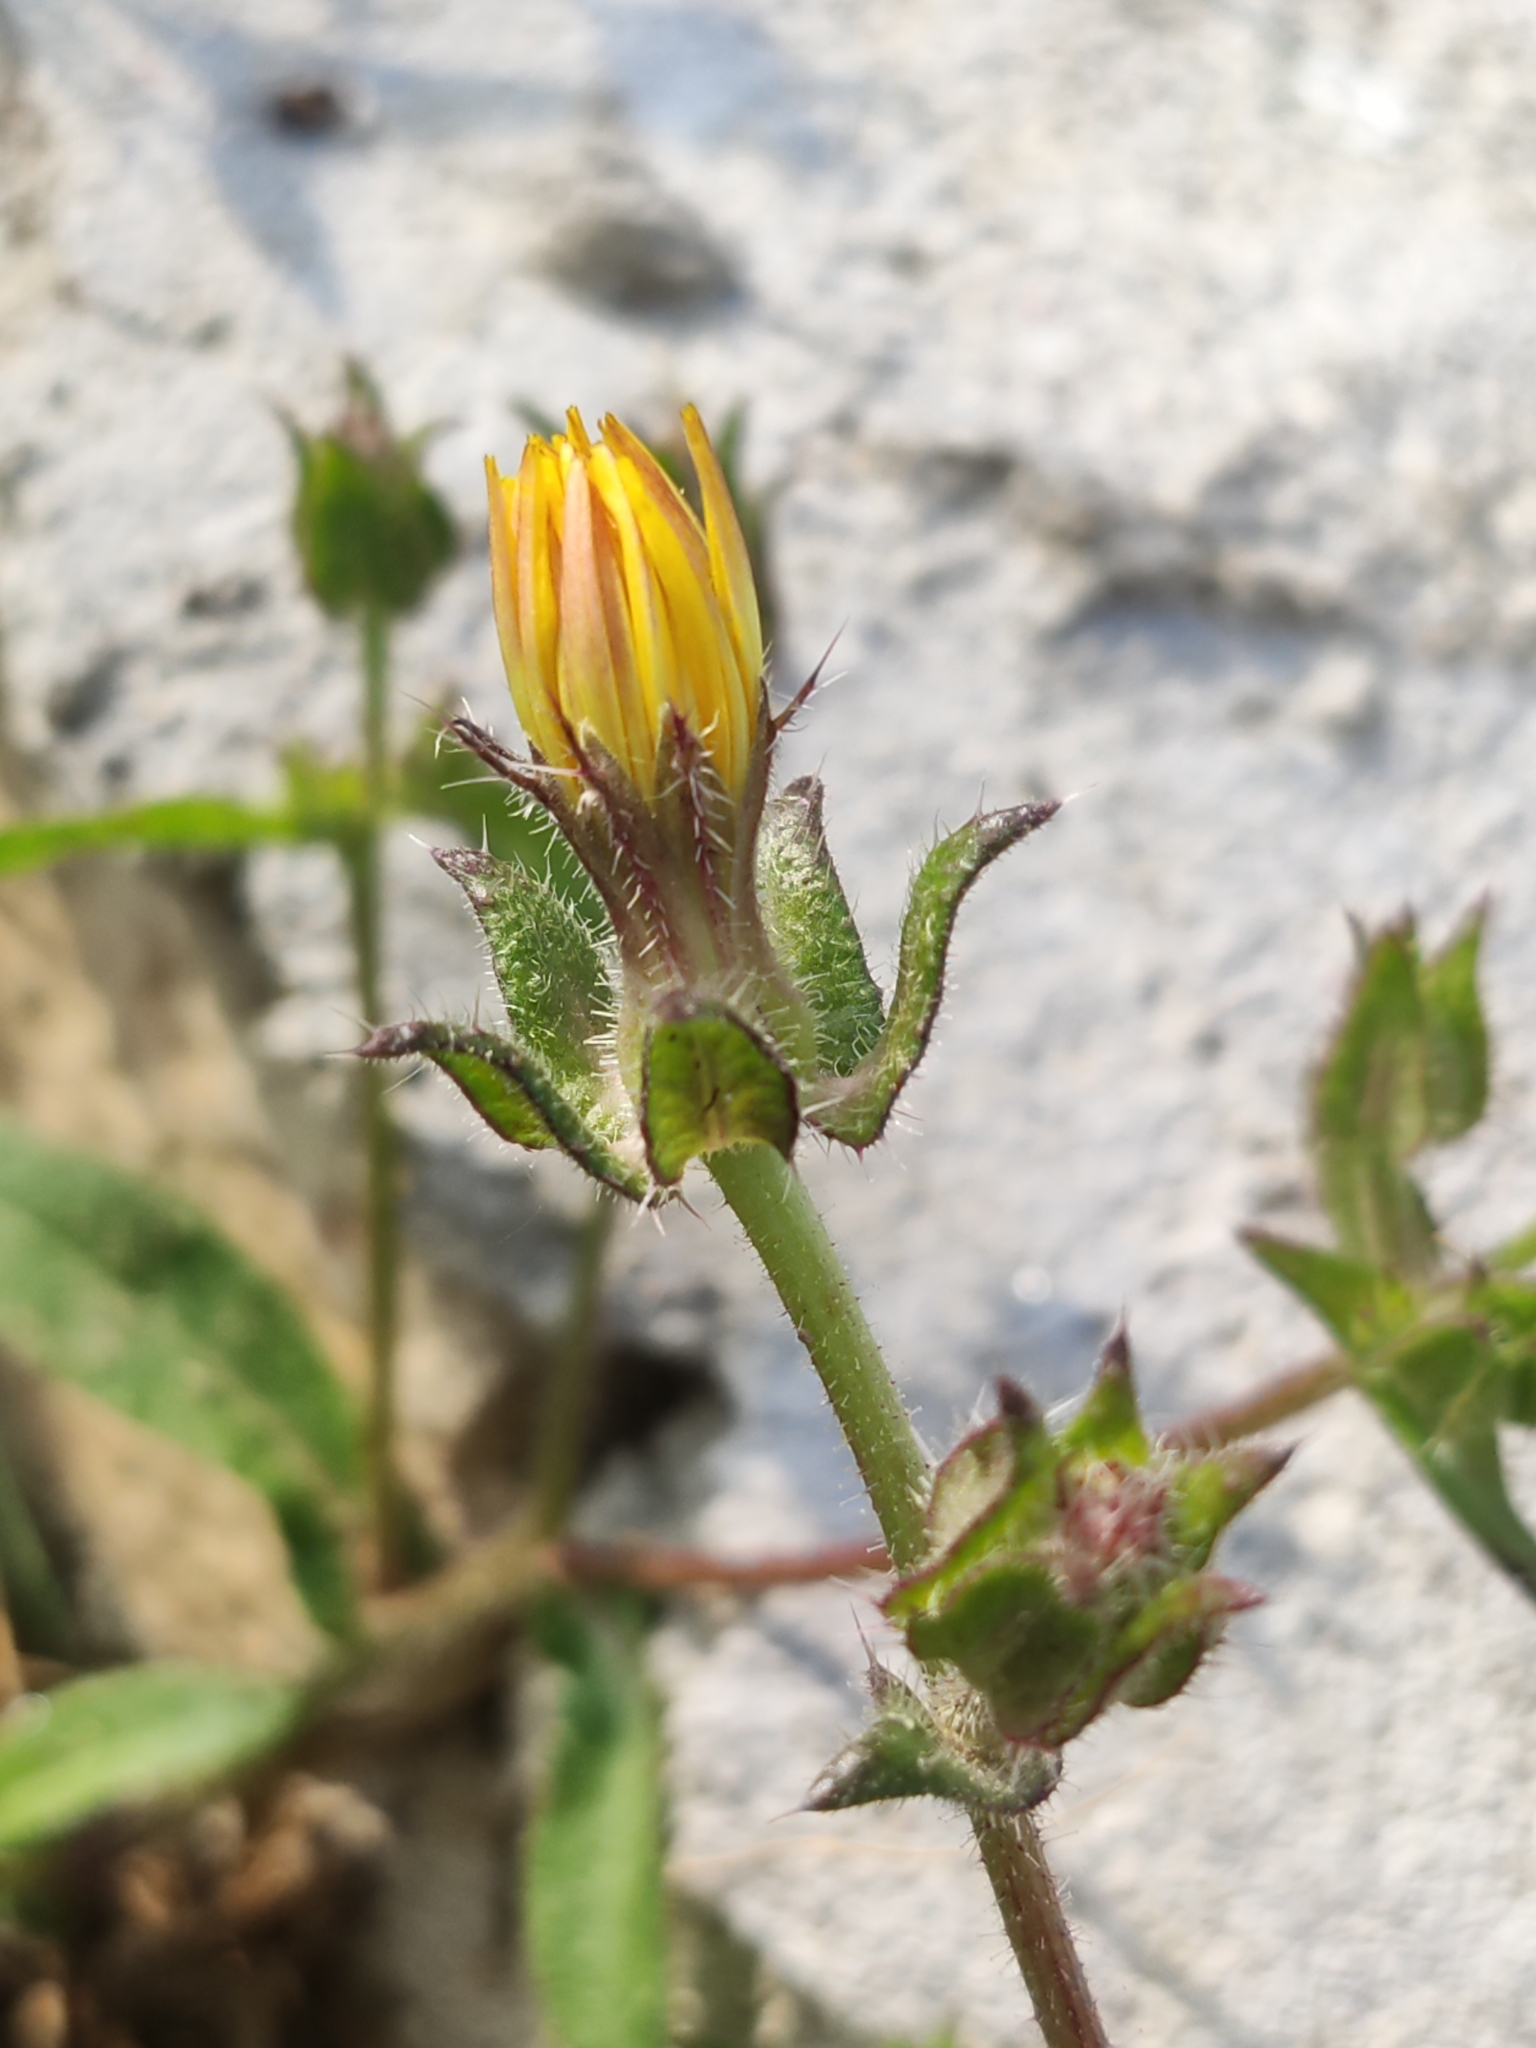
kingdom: Plantae
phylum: Tracheophyta
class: Magnoliopsida
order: Asterales
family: Asteraceae
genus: Helminthotheca
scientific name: Helminthotheca echioides
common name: Ox-tongue
